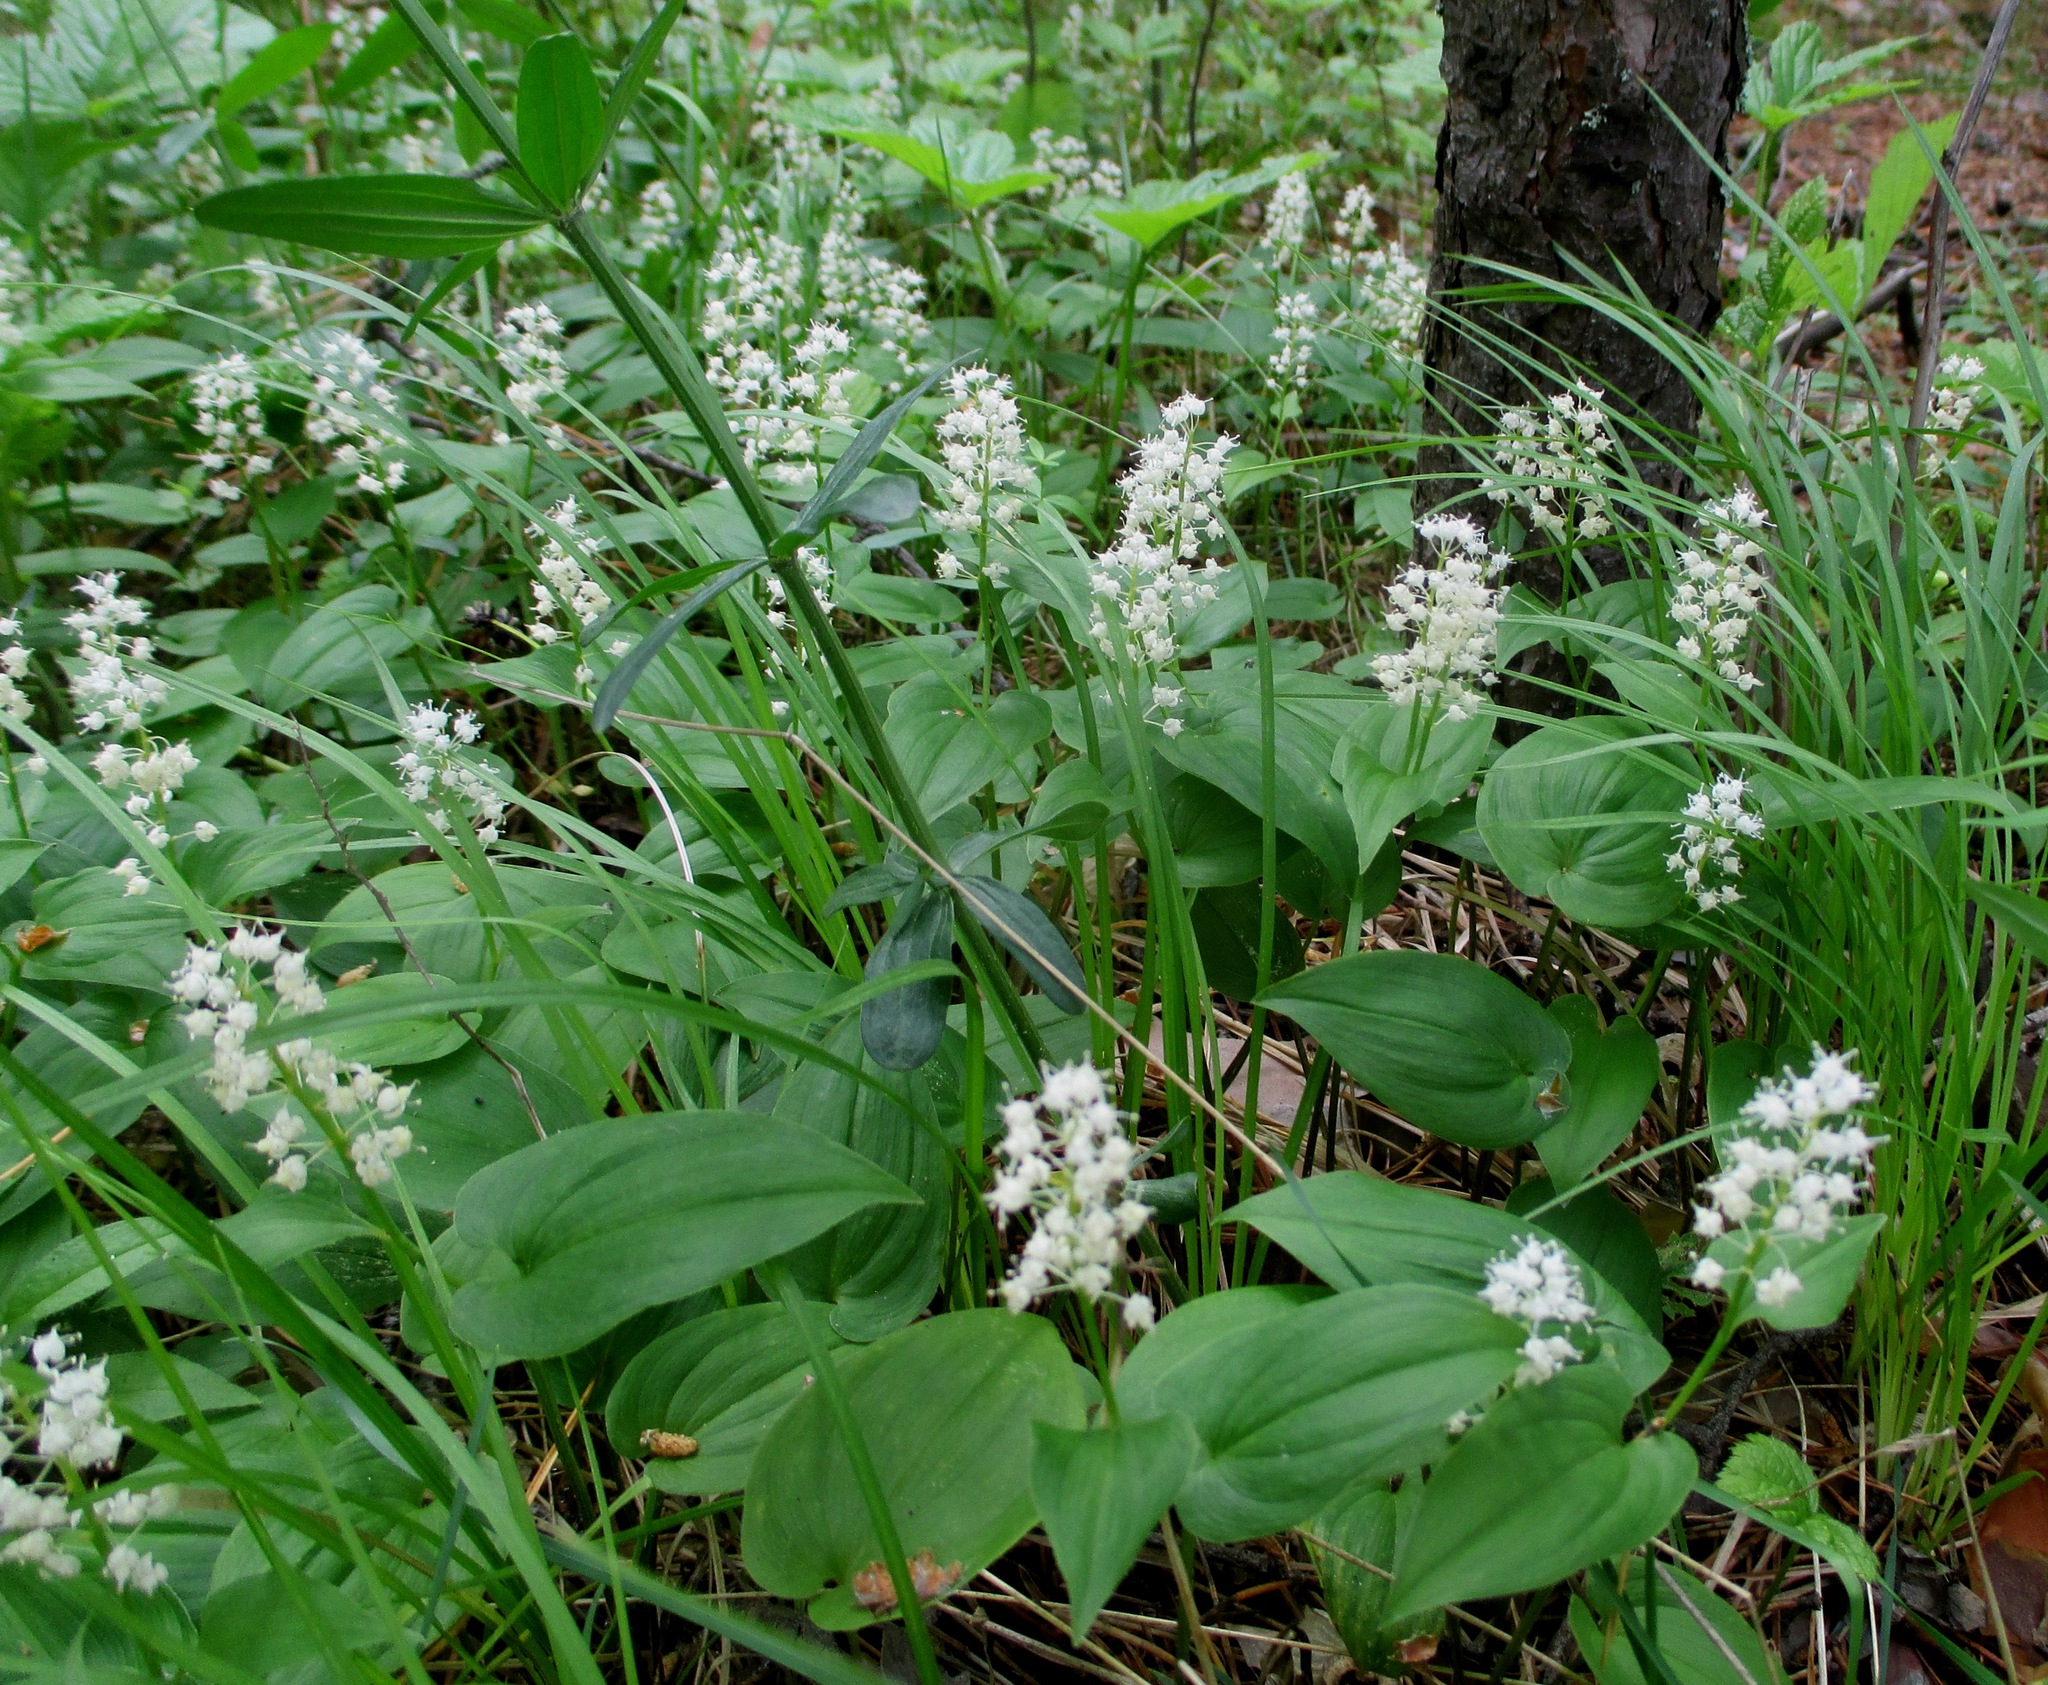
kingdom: Plantae
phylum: Tracheophyta
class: Liliopsida
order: Asparagales
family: Asparagaceae
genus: Maianthemum
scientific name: Maianthemum bifolium
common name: May lily
